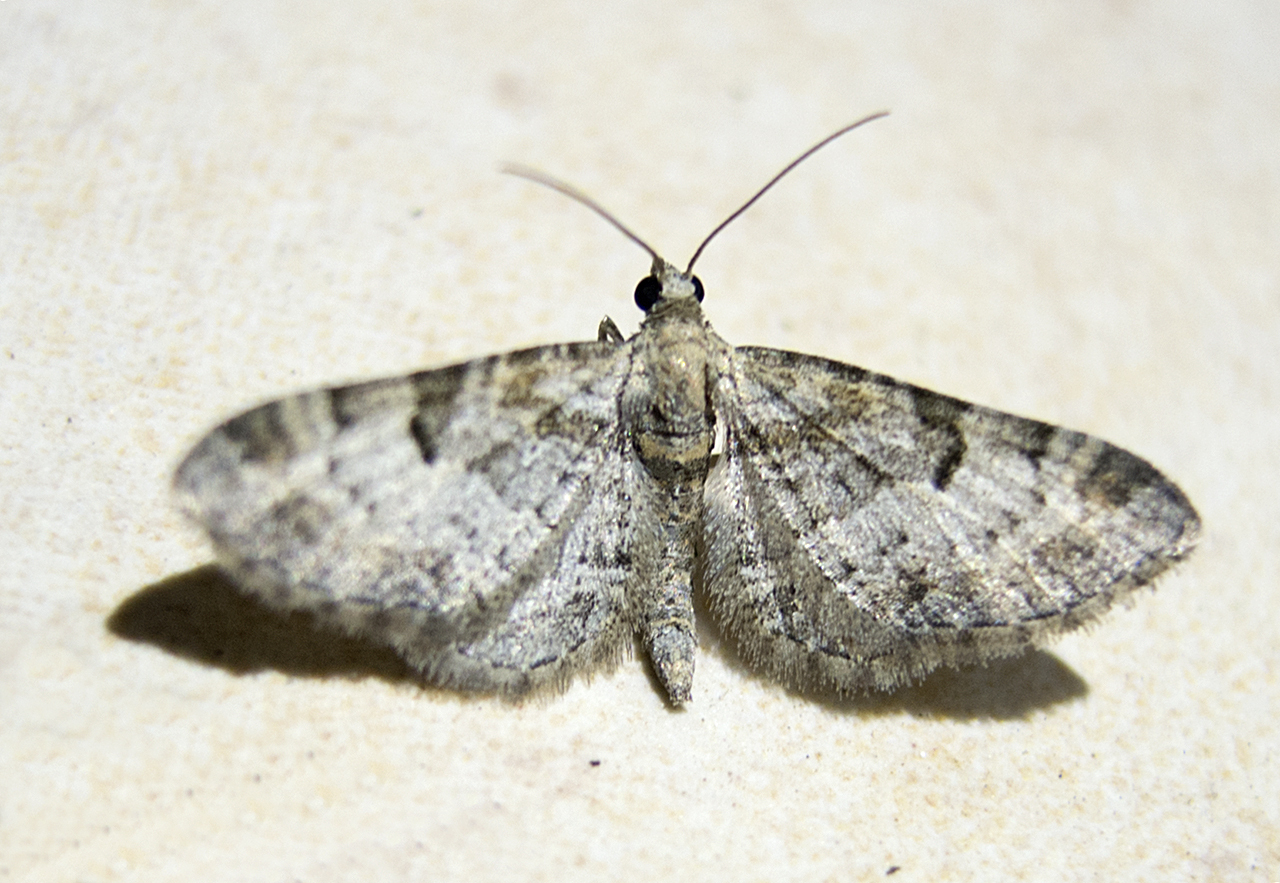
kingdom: Animalia
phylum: Arthropoda
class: Insecta
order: Lepidoptera
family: Geometridae
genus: Eupithecia
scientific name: Eupithecia irriguata
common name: Marbled pug
